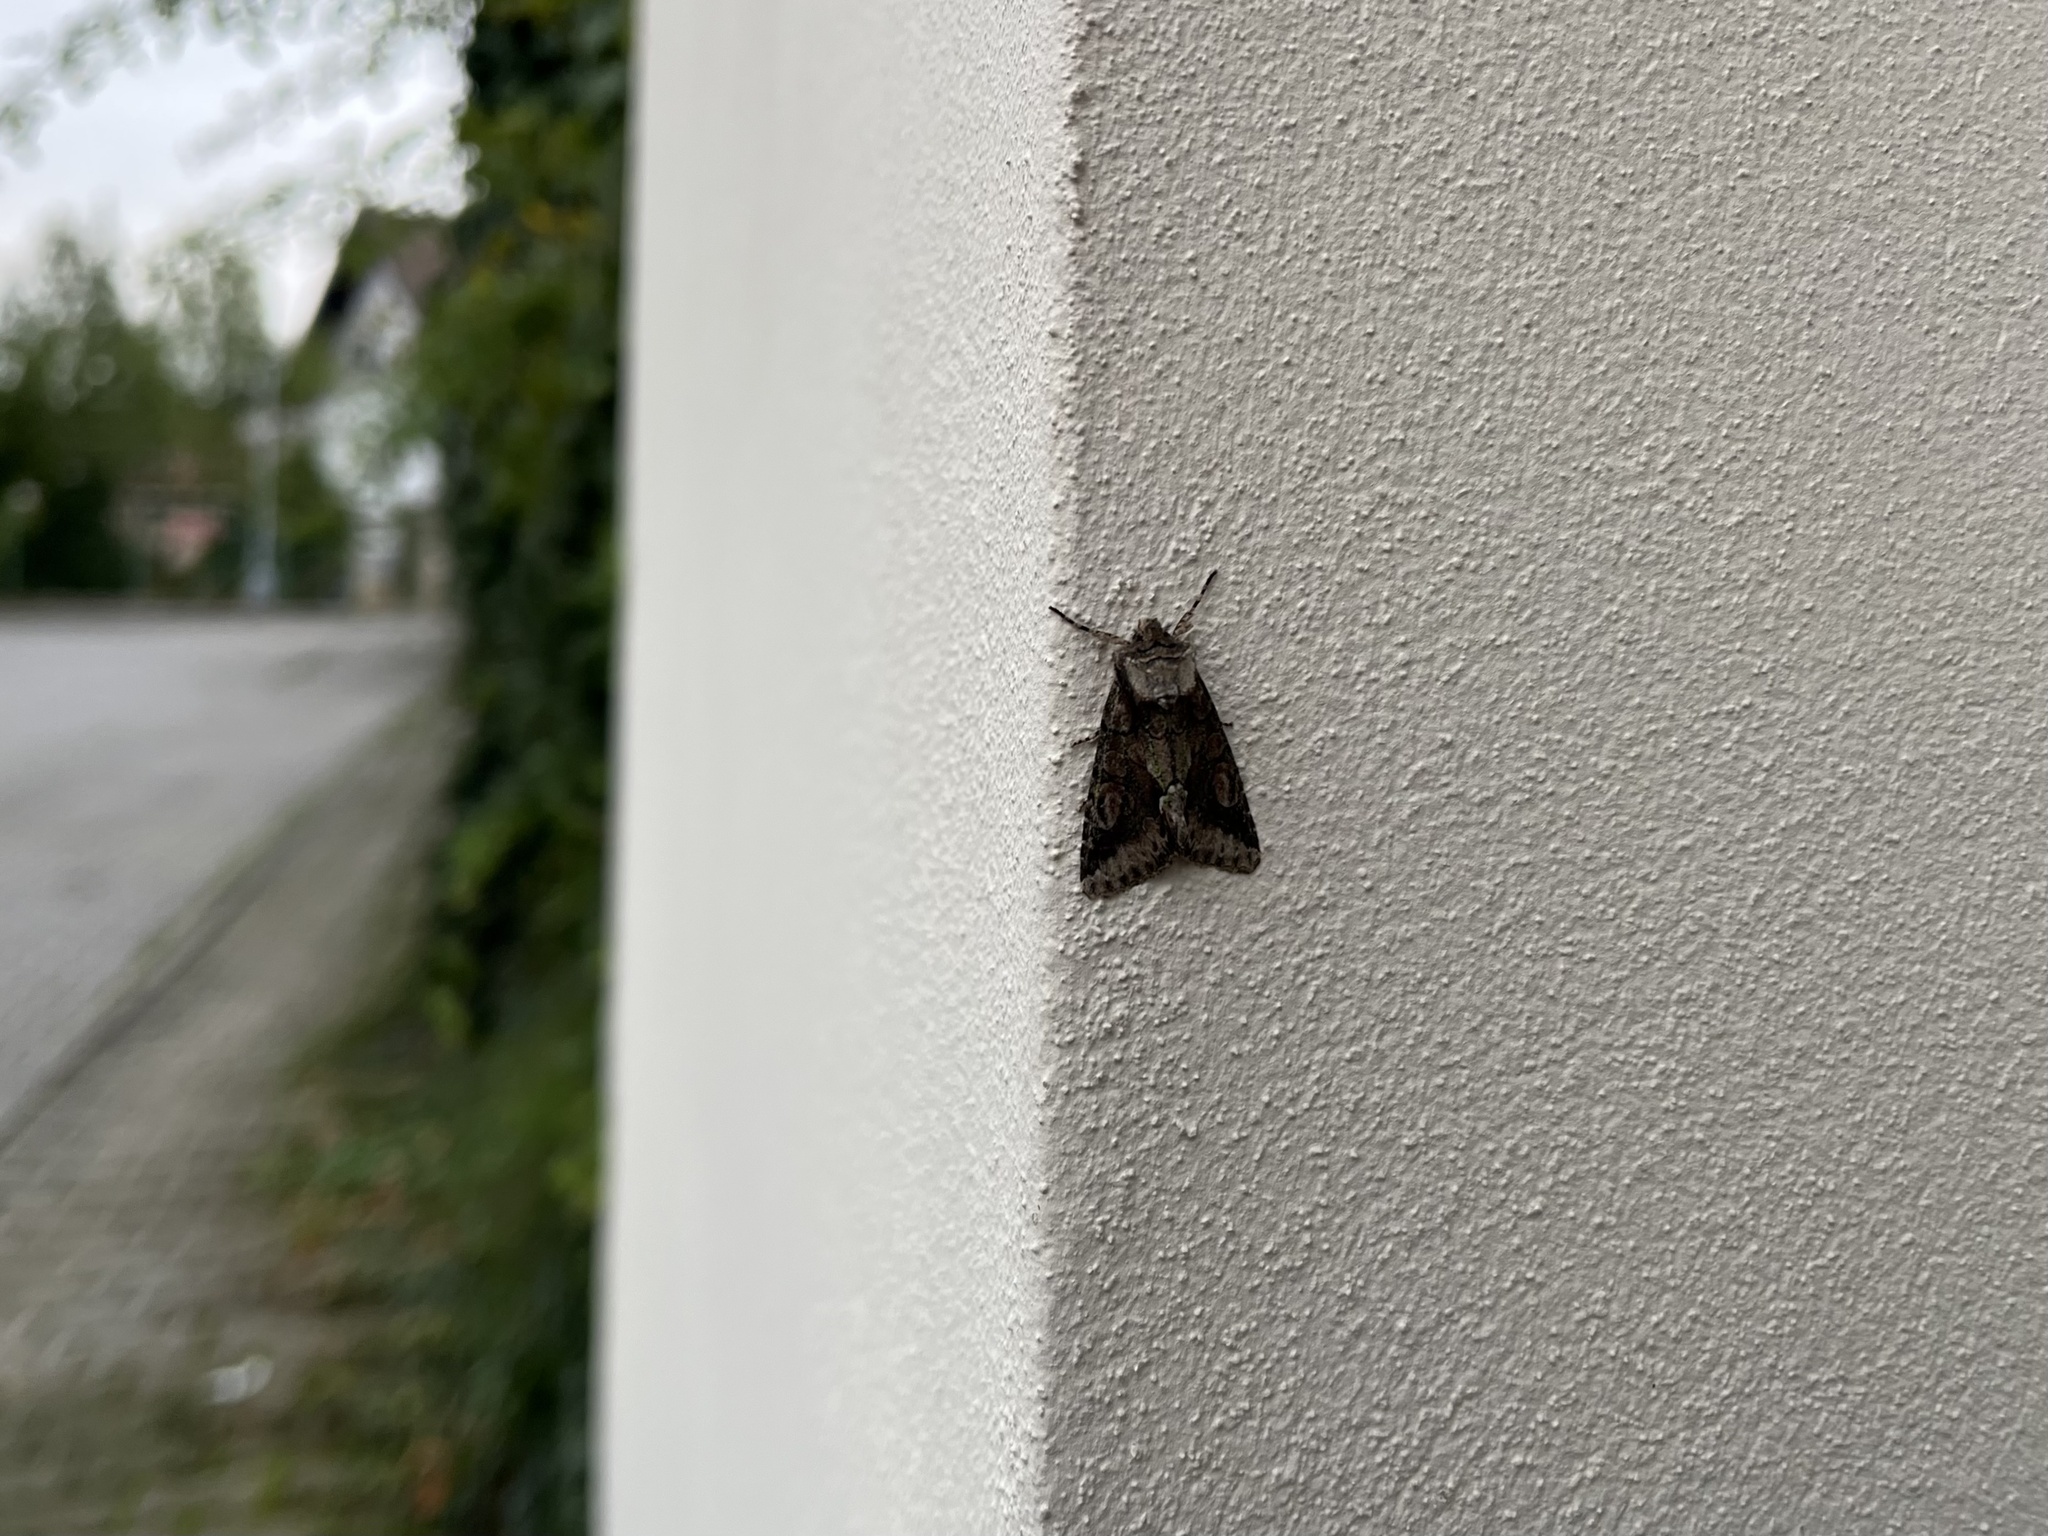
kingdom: Animalia
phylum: Arthropoda
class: Insecta
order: Lepidoptera
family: Noctuidae
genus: Allophyes
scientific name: Allophyes oxyacanthae
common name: Green-brindled crescent
